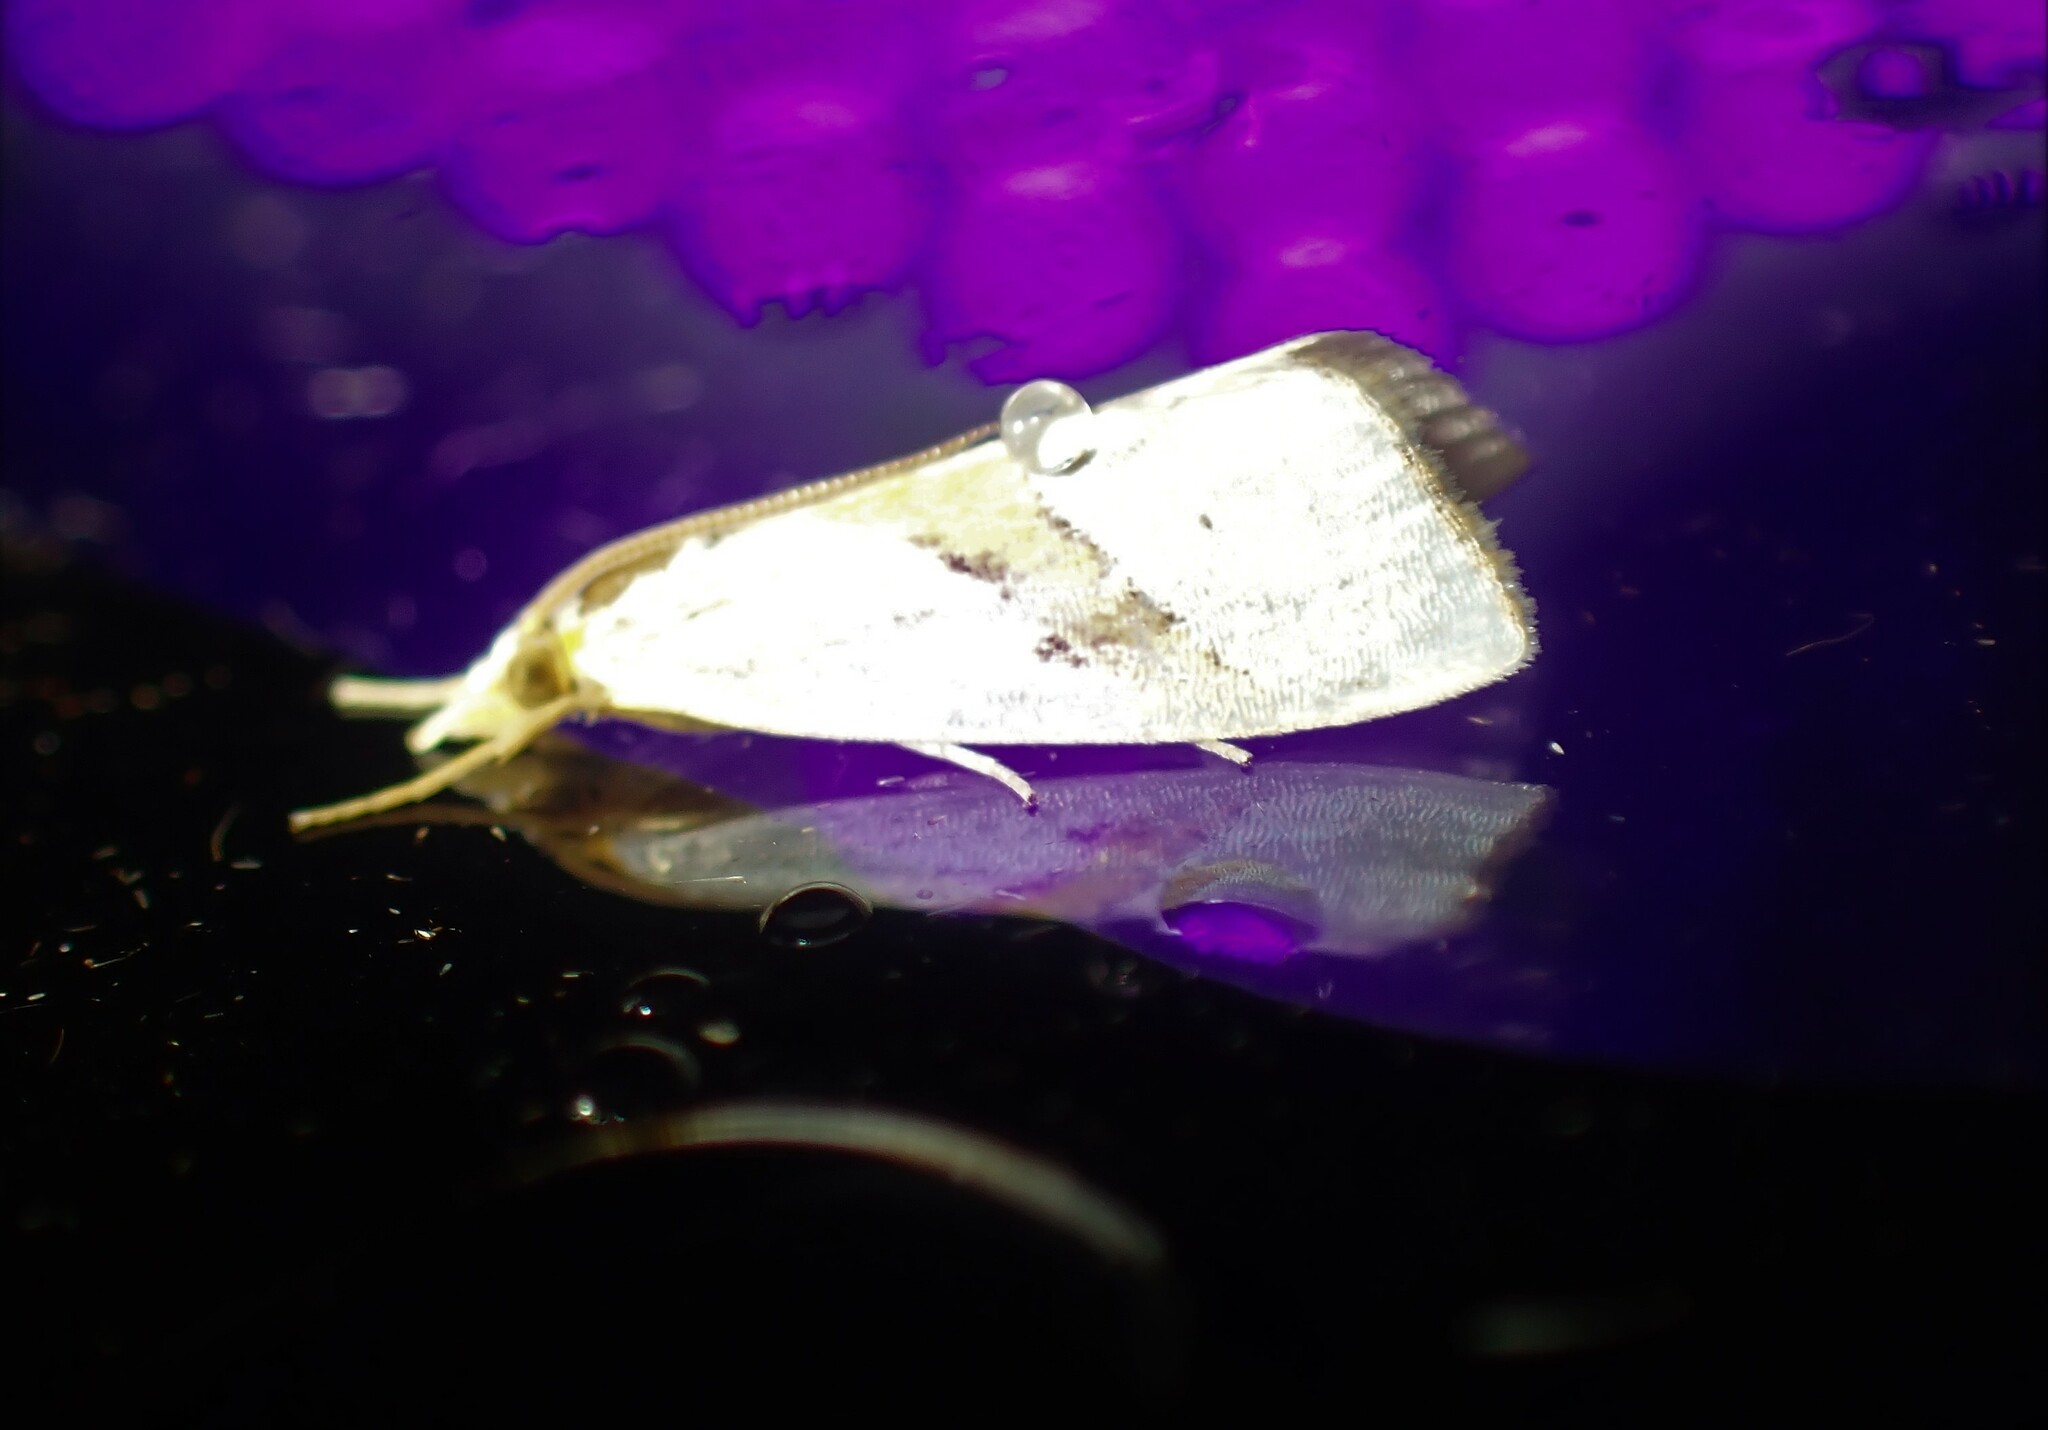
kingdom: Animalia
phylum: Arthropoda
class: Insecta
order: Lepidoptera
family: Crambidae
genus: Vaxi
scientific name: Vaxi critica
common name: Straight-lined vaxi moth
